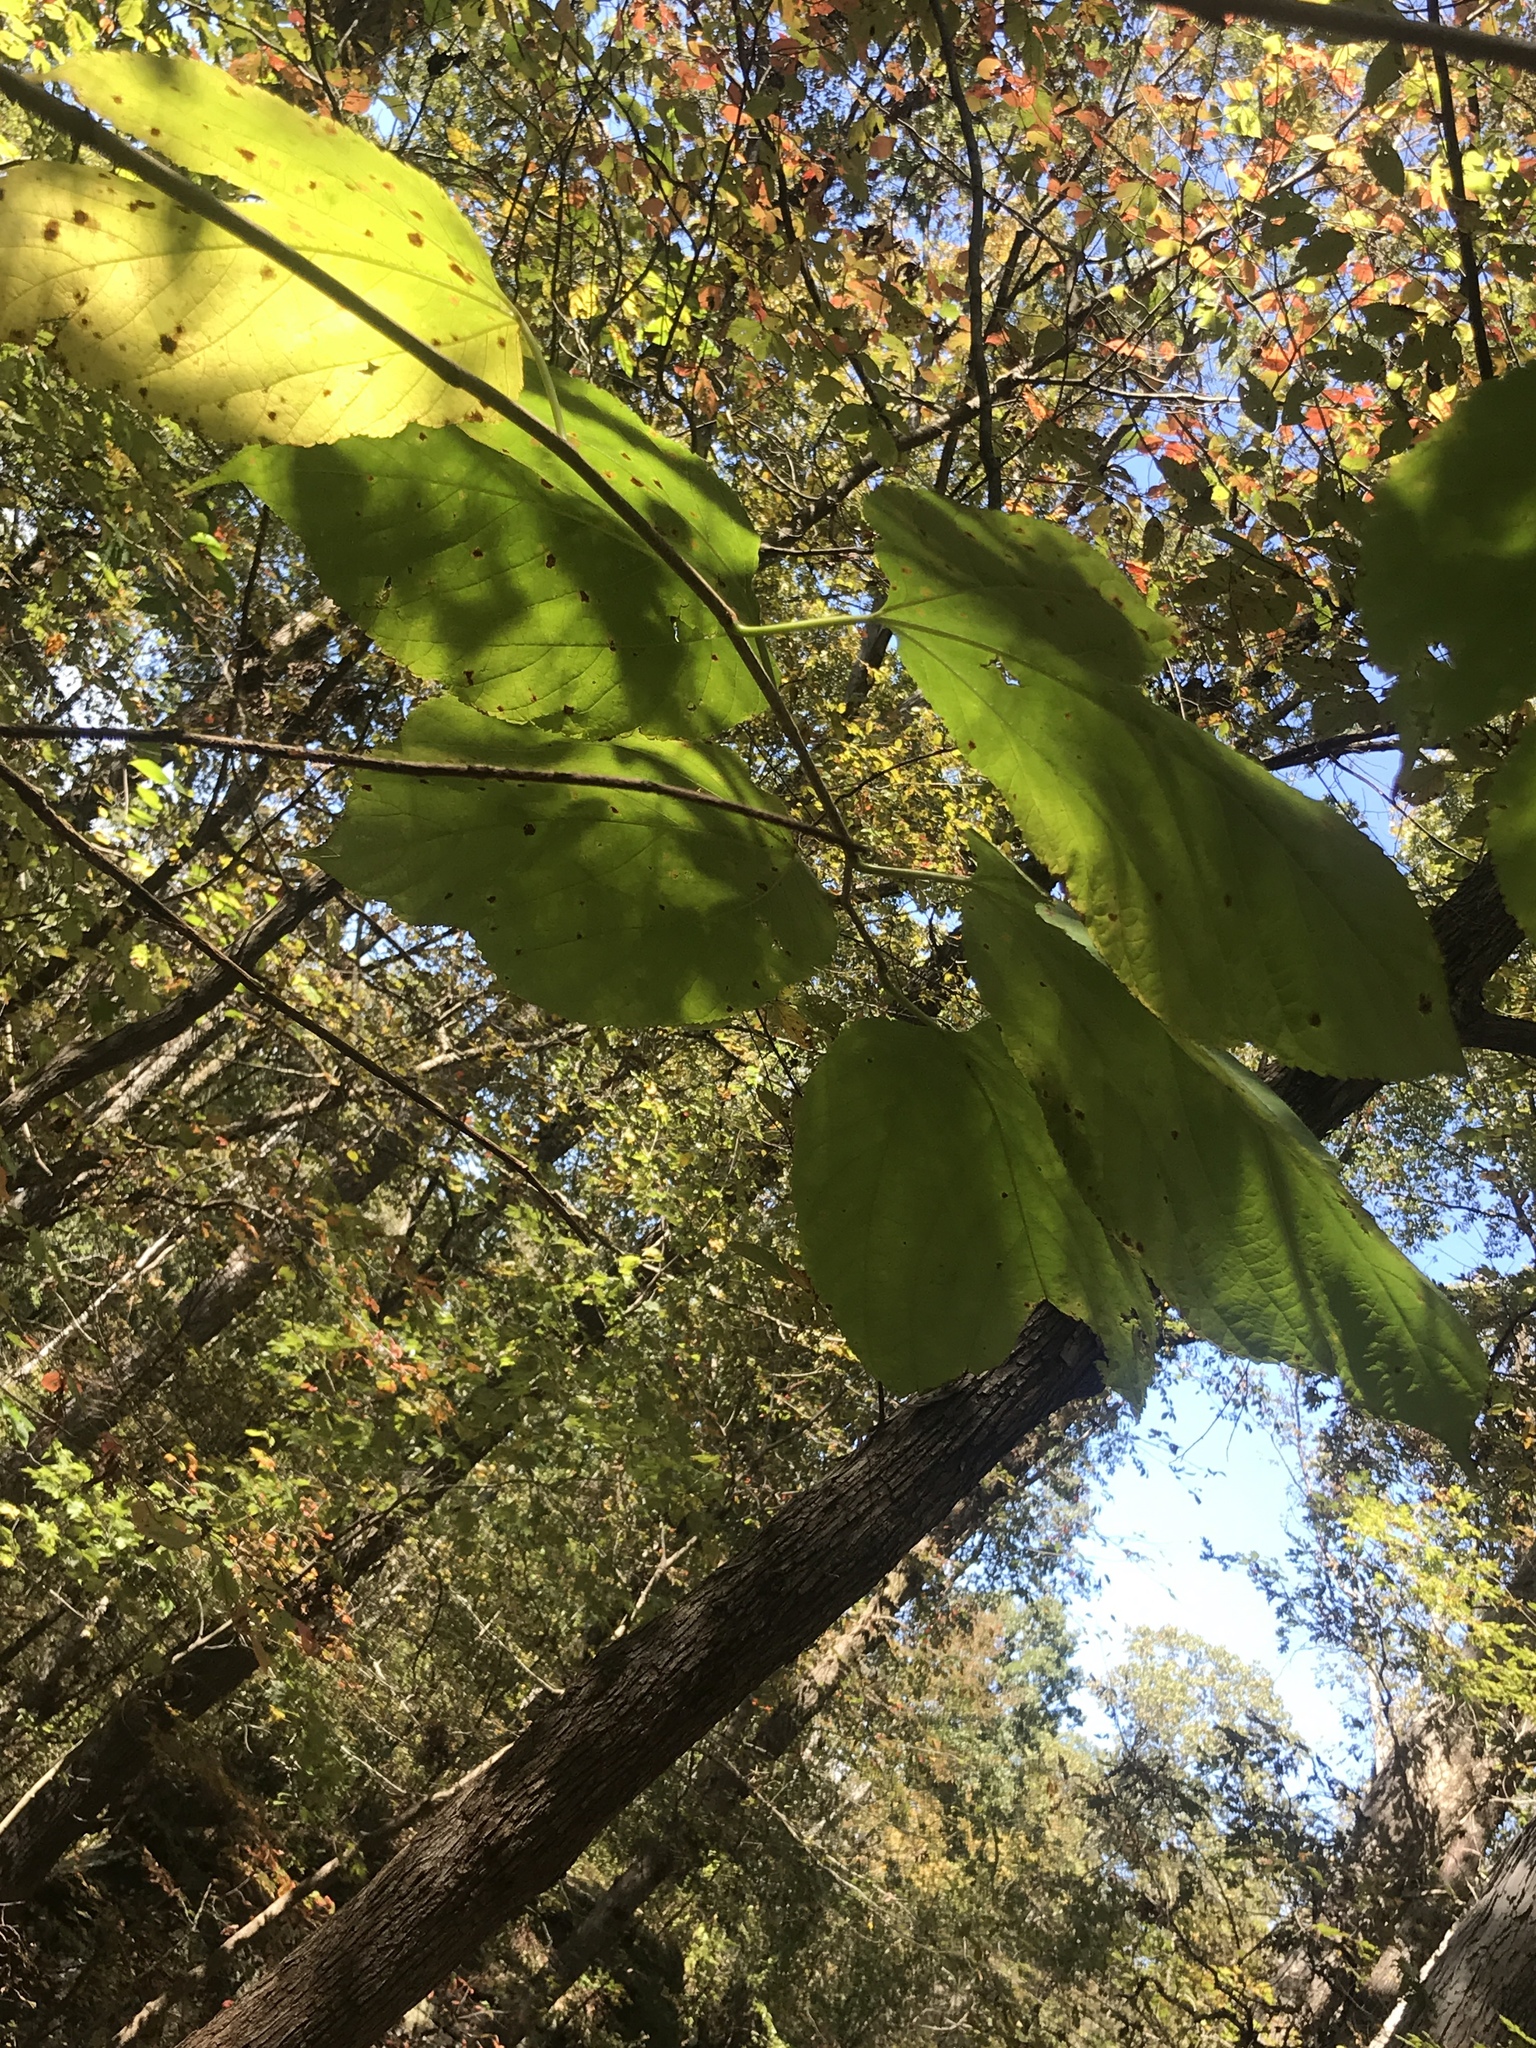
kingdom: Plantae
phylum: Tracheophyta
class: Magnoliopsida
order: Rosales
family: Moraceae
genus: Morus
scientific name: Morus rubra
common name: Red mulberry
